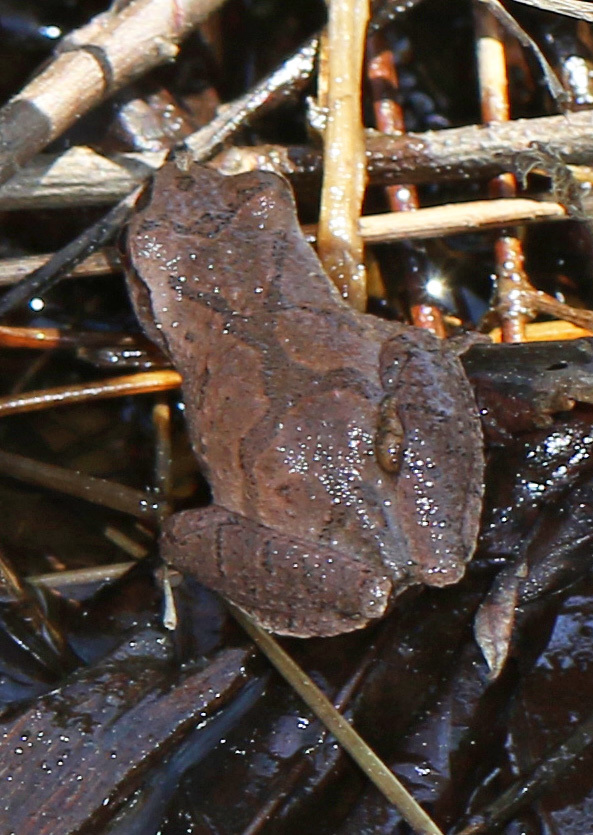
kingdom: Animalia
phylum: Chordata
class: Amphibia
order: Anura
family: Hylidae
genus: Pseudacris
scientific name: Pseudacris crucifer
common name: Spring peeper
